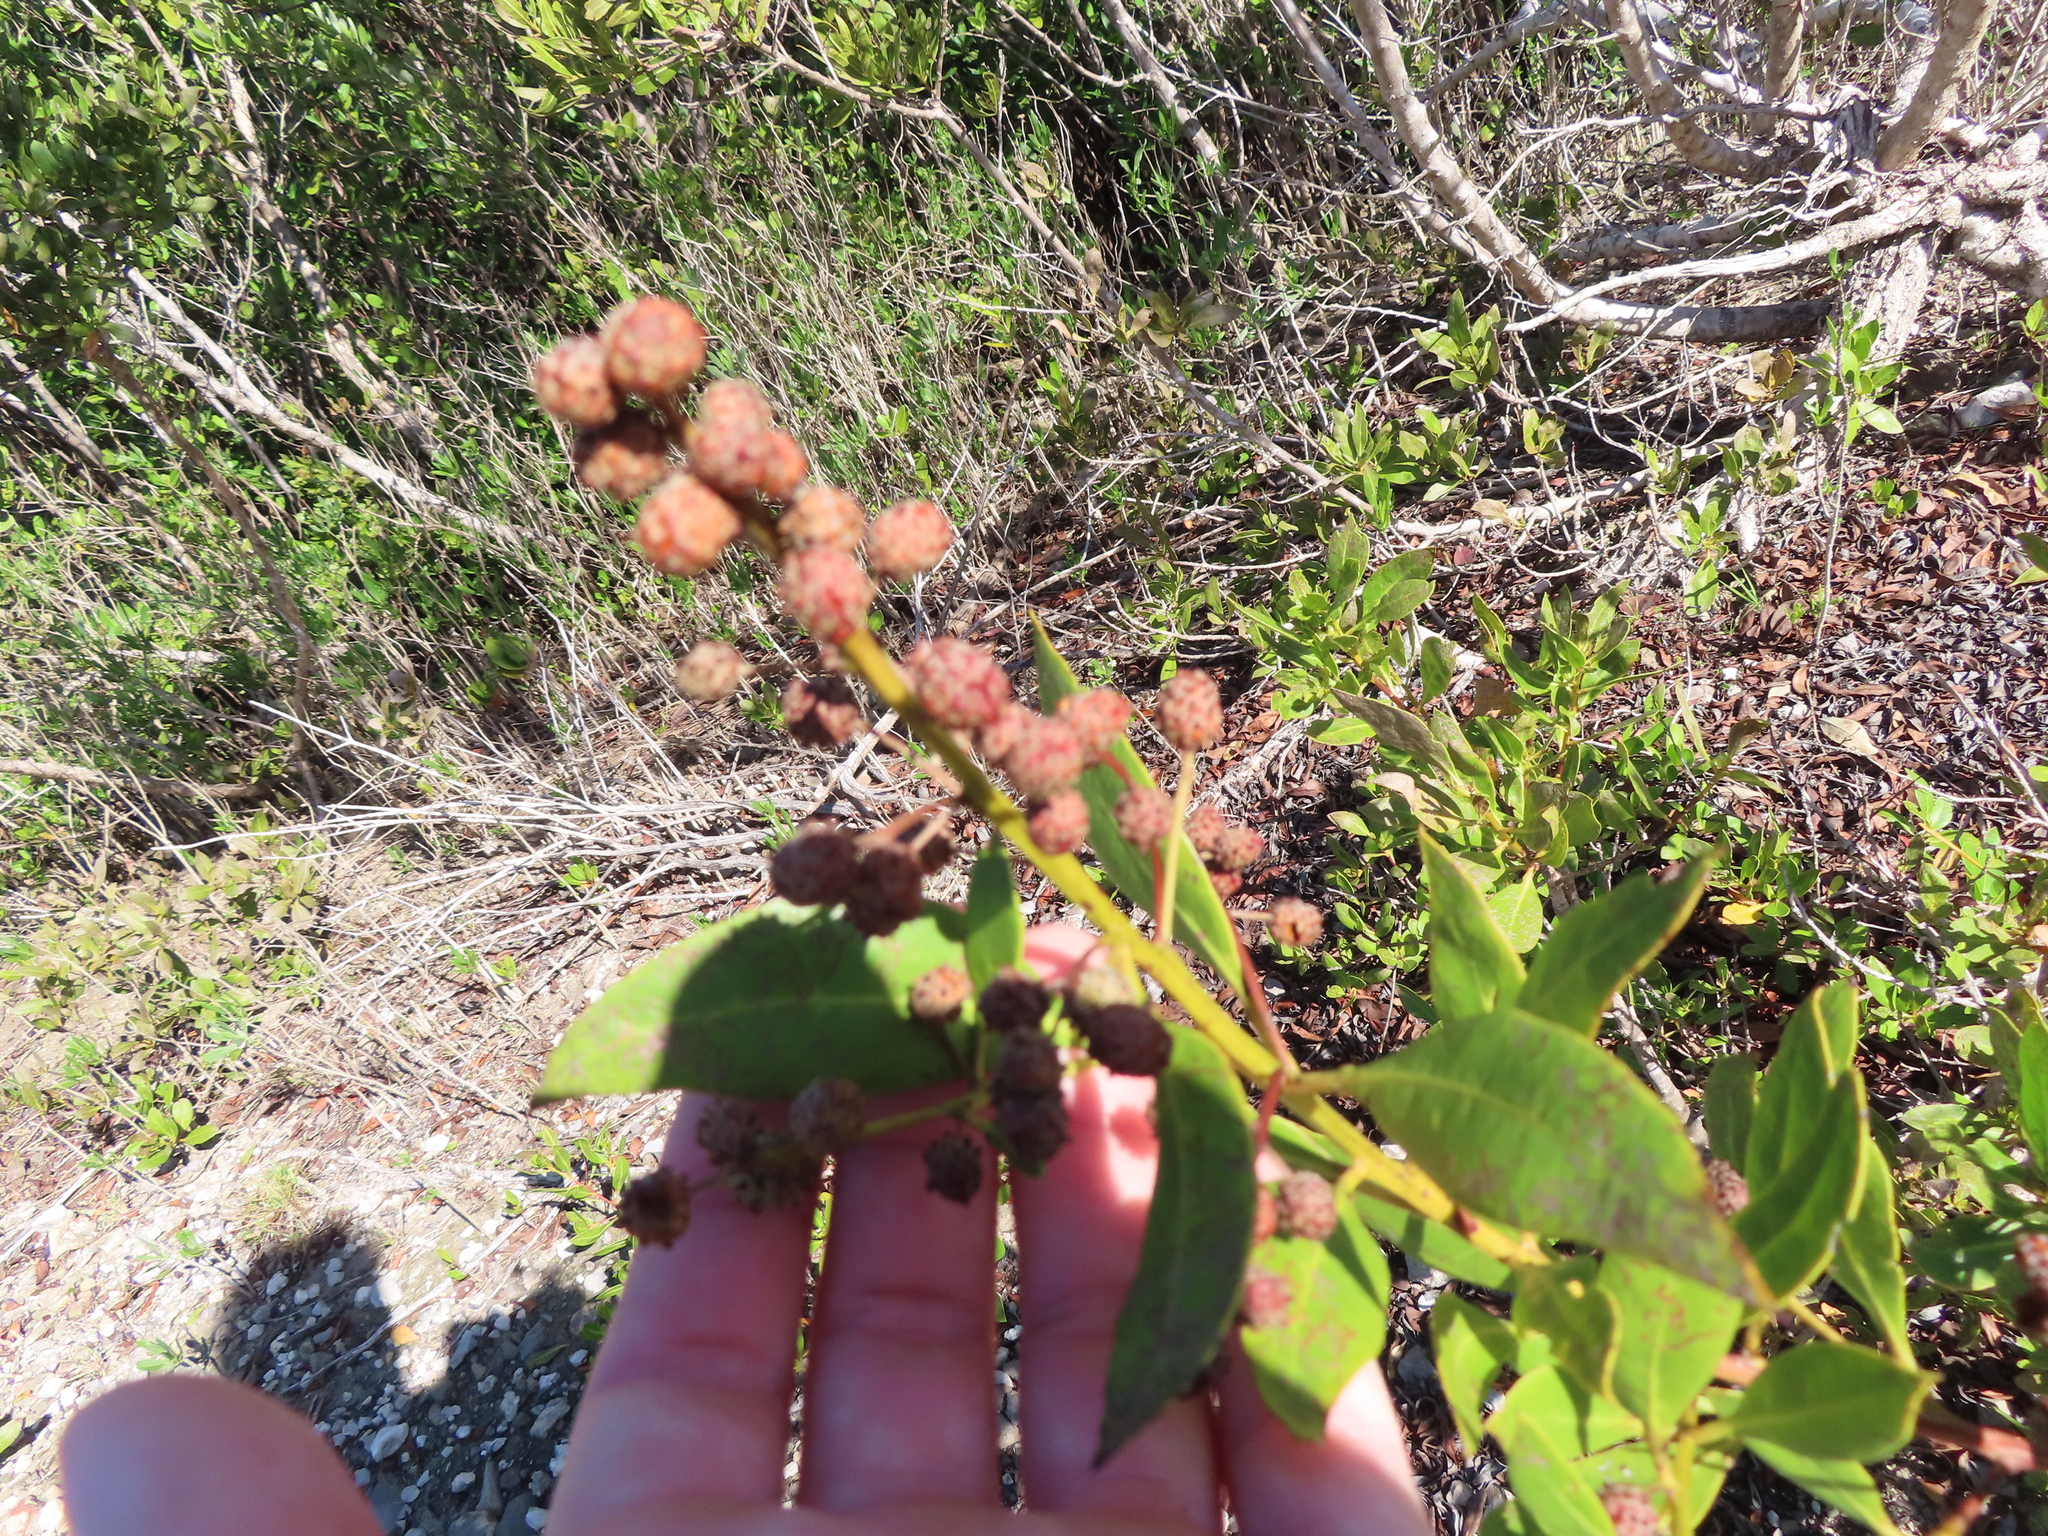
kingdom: Plantae
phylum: Tracheophyta
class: Magnoliopsida
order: Myrtales
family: Combretaceae
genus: Conocarpus
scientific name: Conocarpus erectus
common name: Button mangrove
